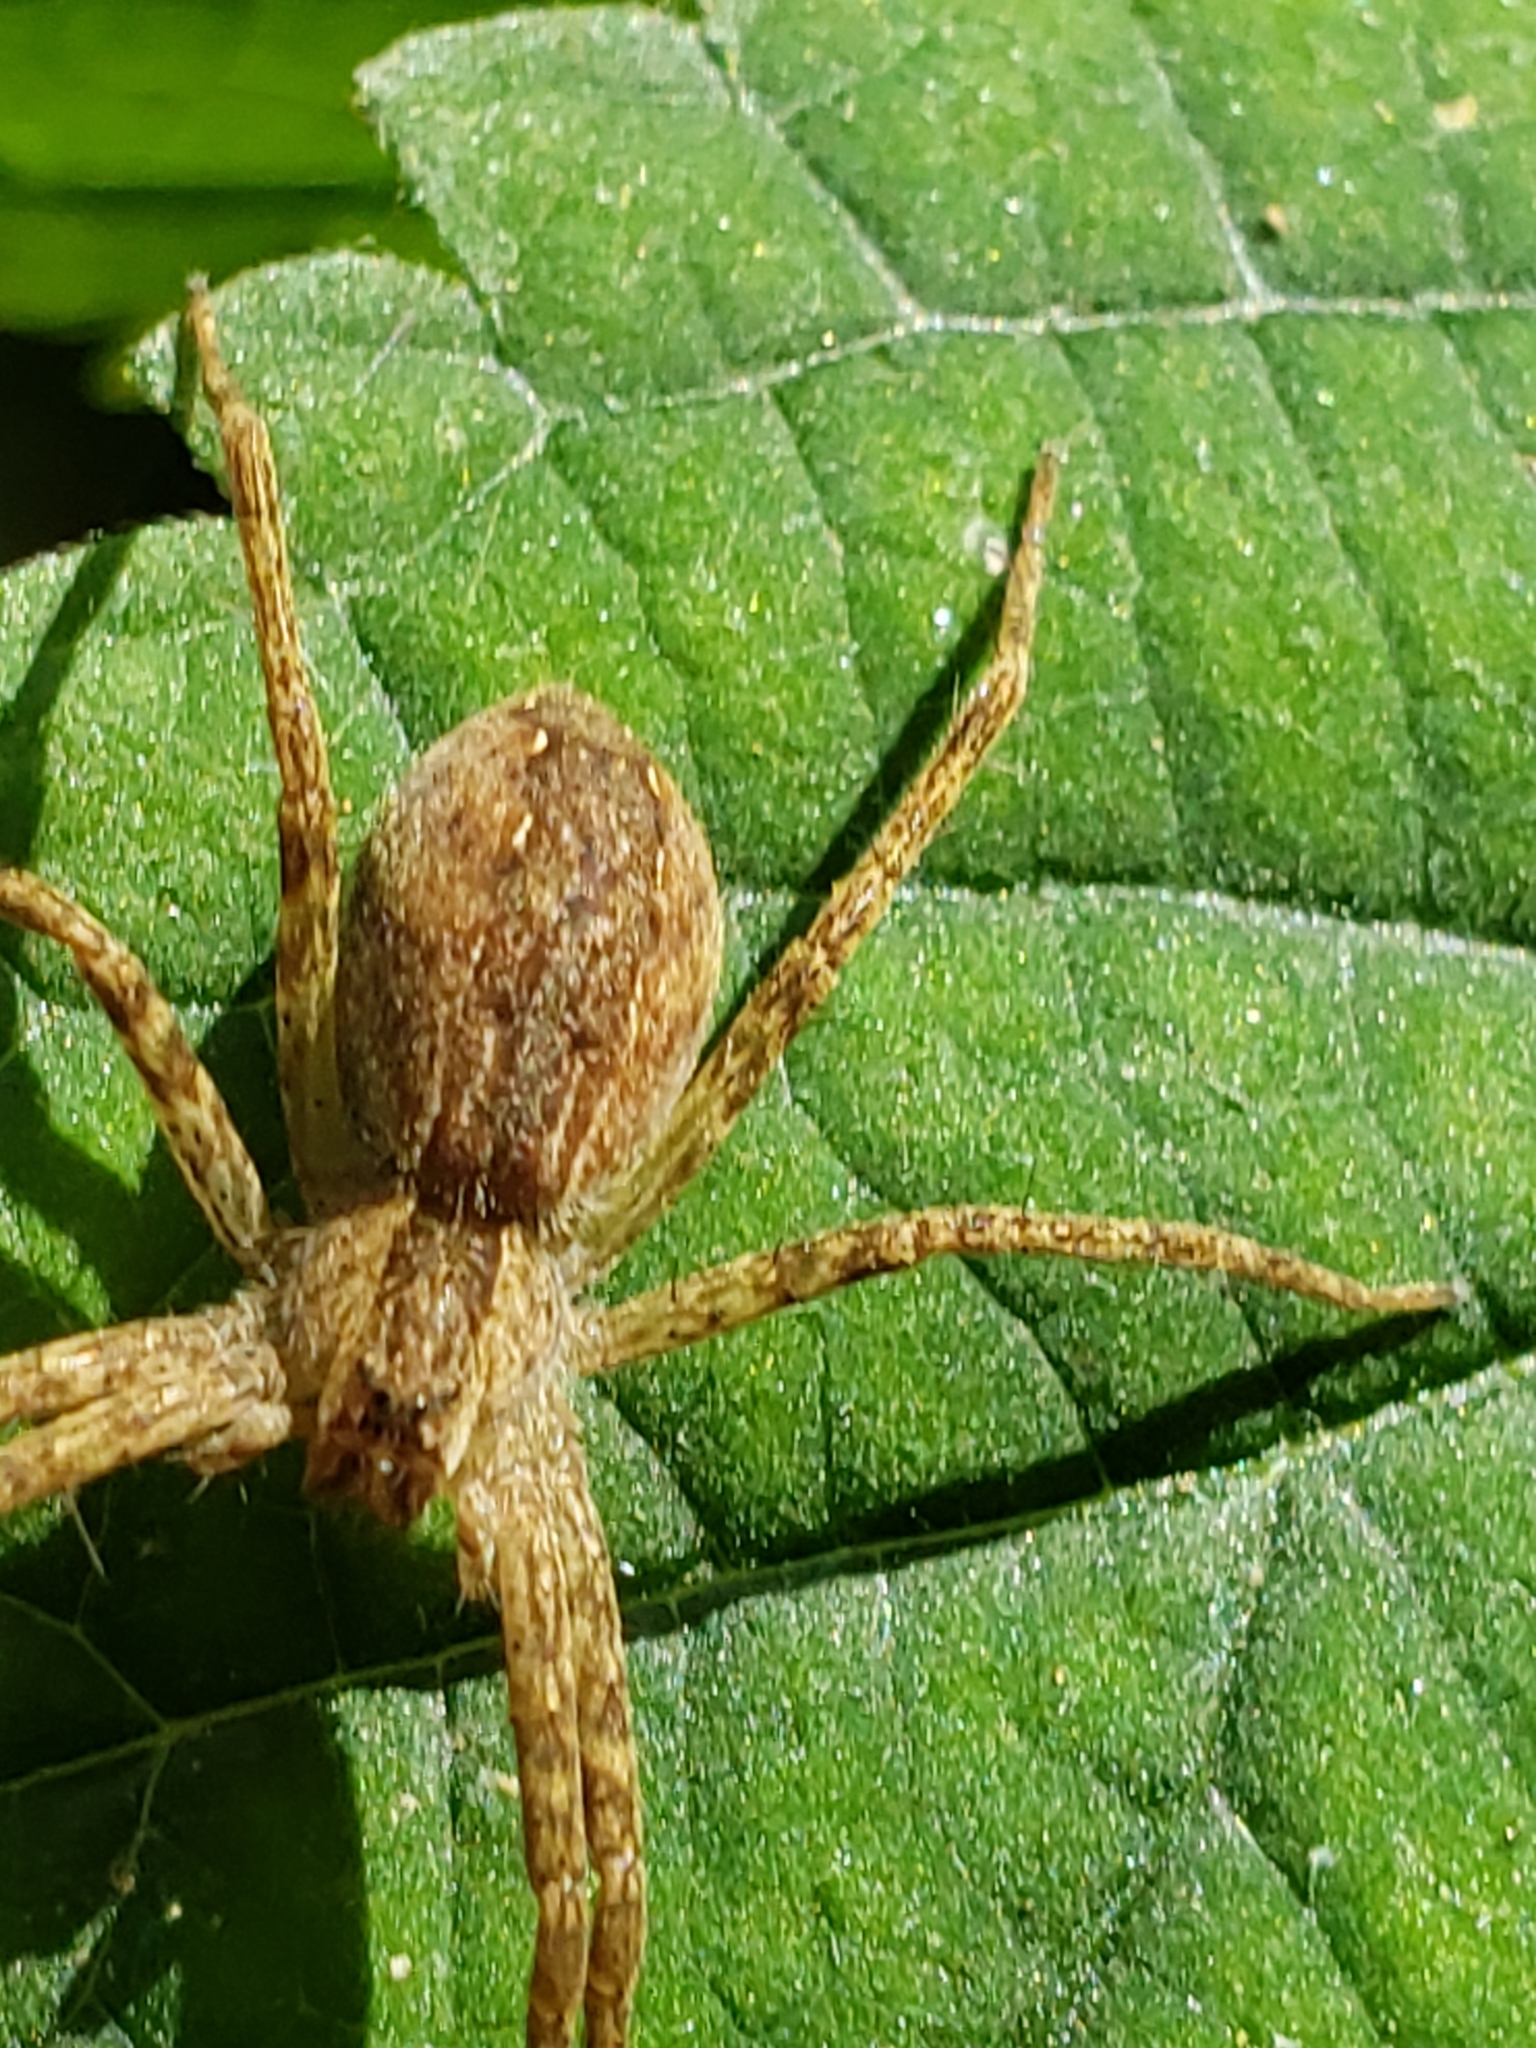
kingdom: Animalia
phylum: Arthropoda
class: Arachnida
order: Araneae
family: Pisauridae
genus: Pisaurina
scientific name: Pisaurina mira
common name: American nursery web spider
